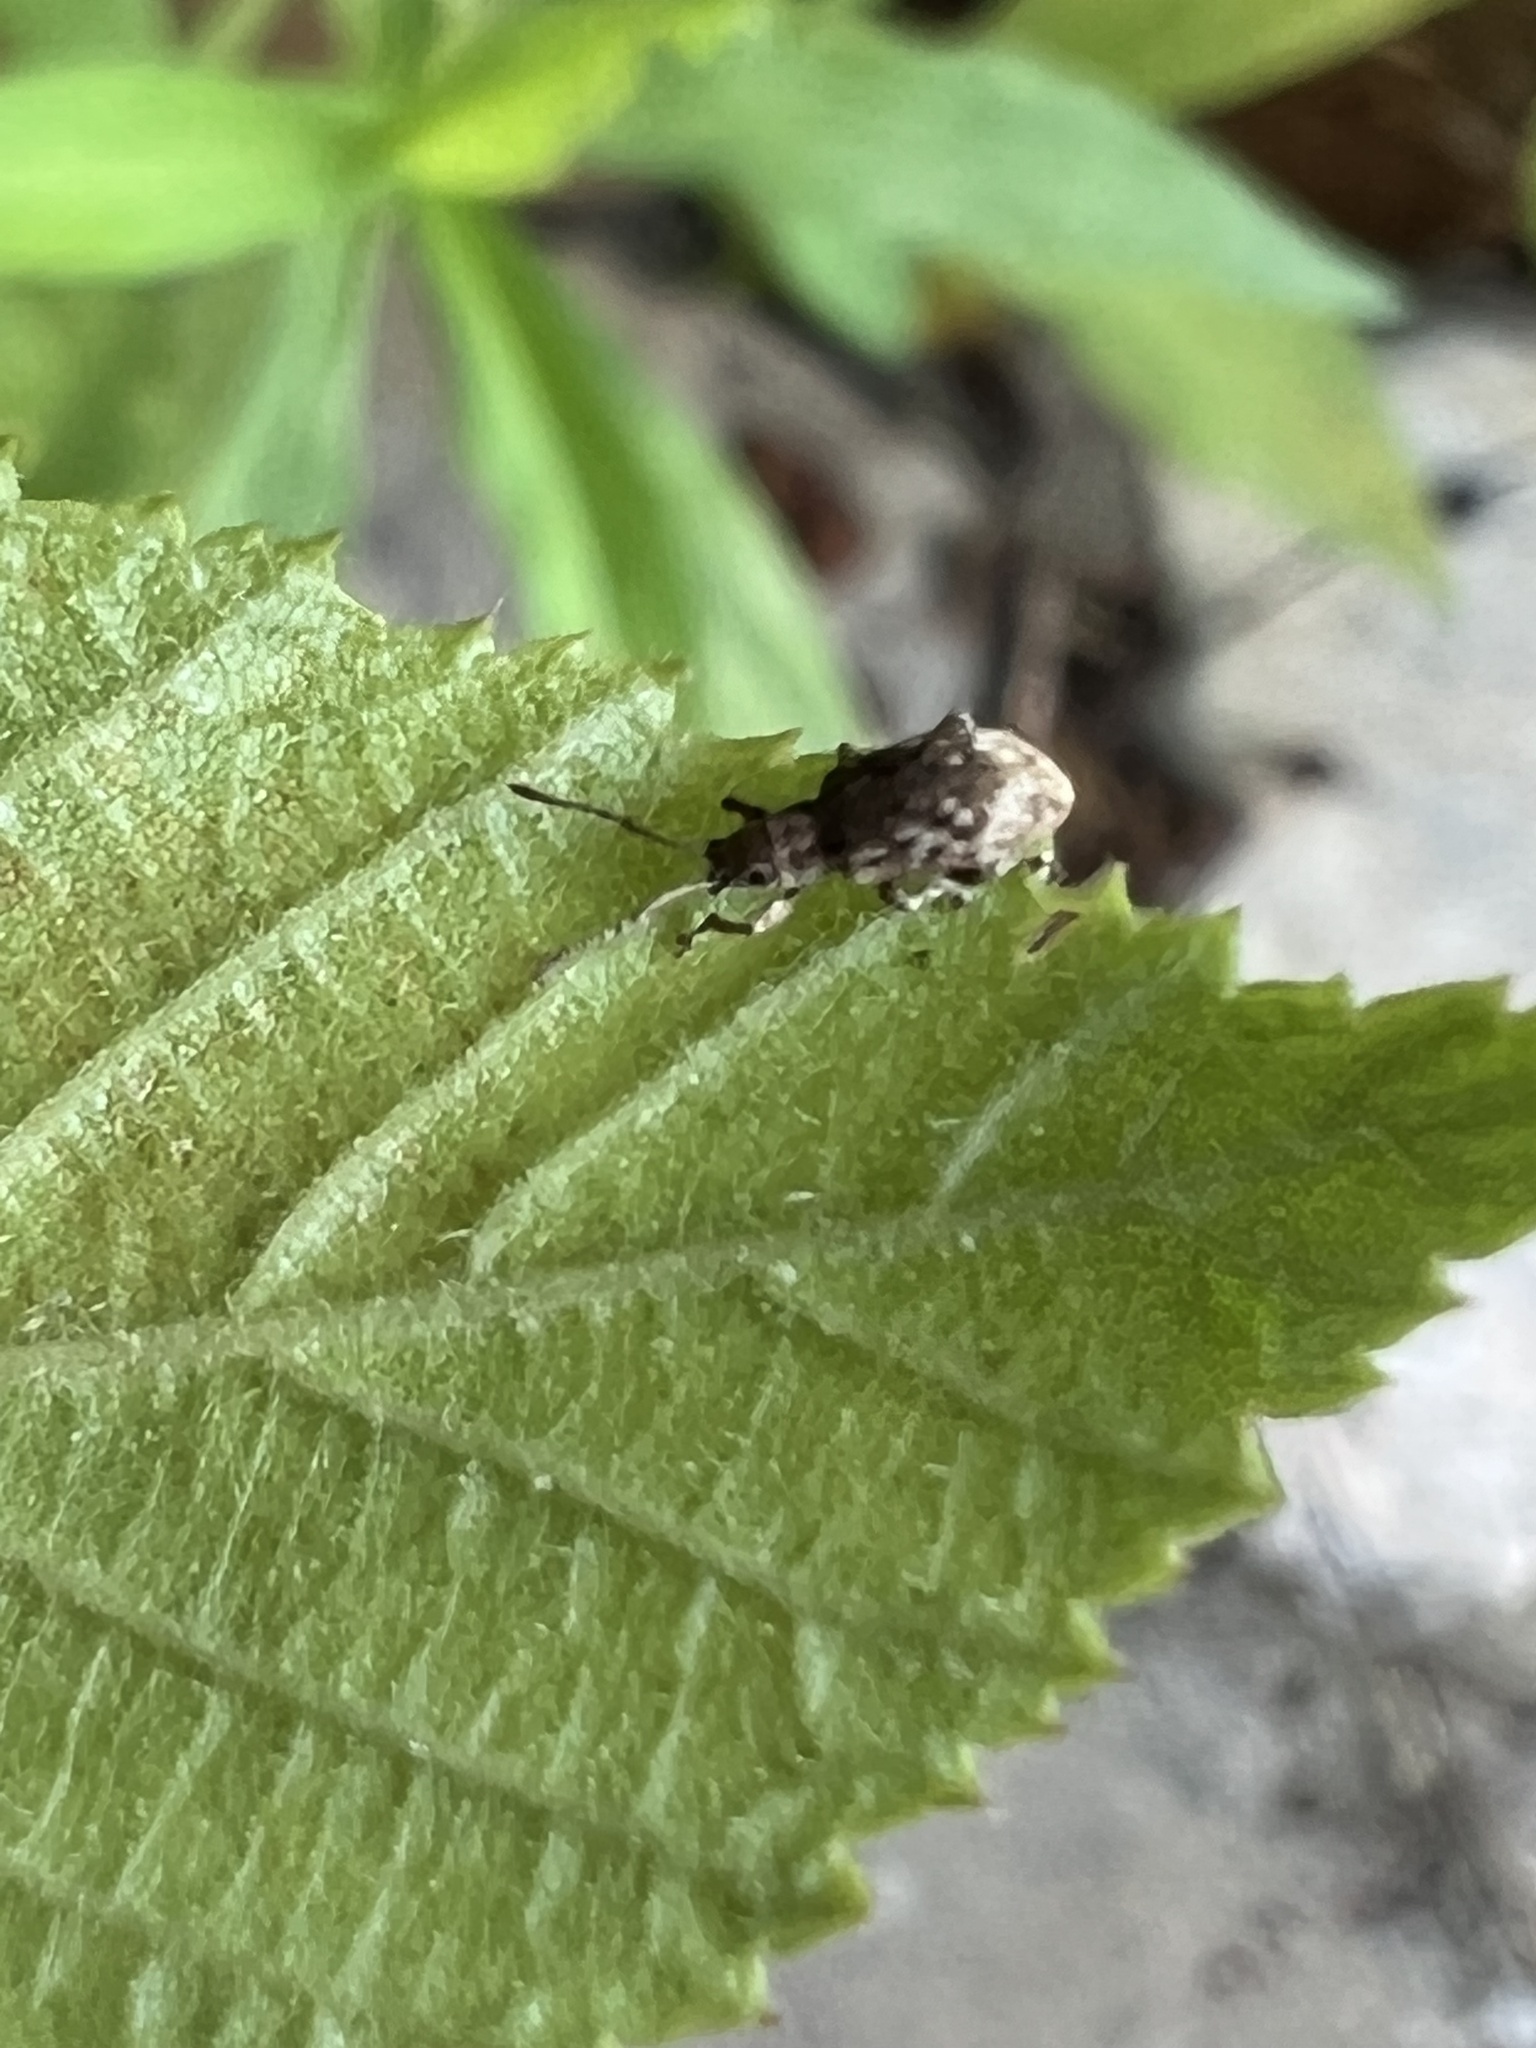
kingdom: Animalia
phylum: Arthropoda
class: Insecta
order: Coleoptera
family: Curculionidae
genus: Pseudoedophrys
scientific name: Pseudoedophrys hilleri
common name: Weevil
